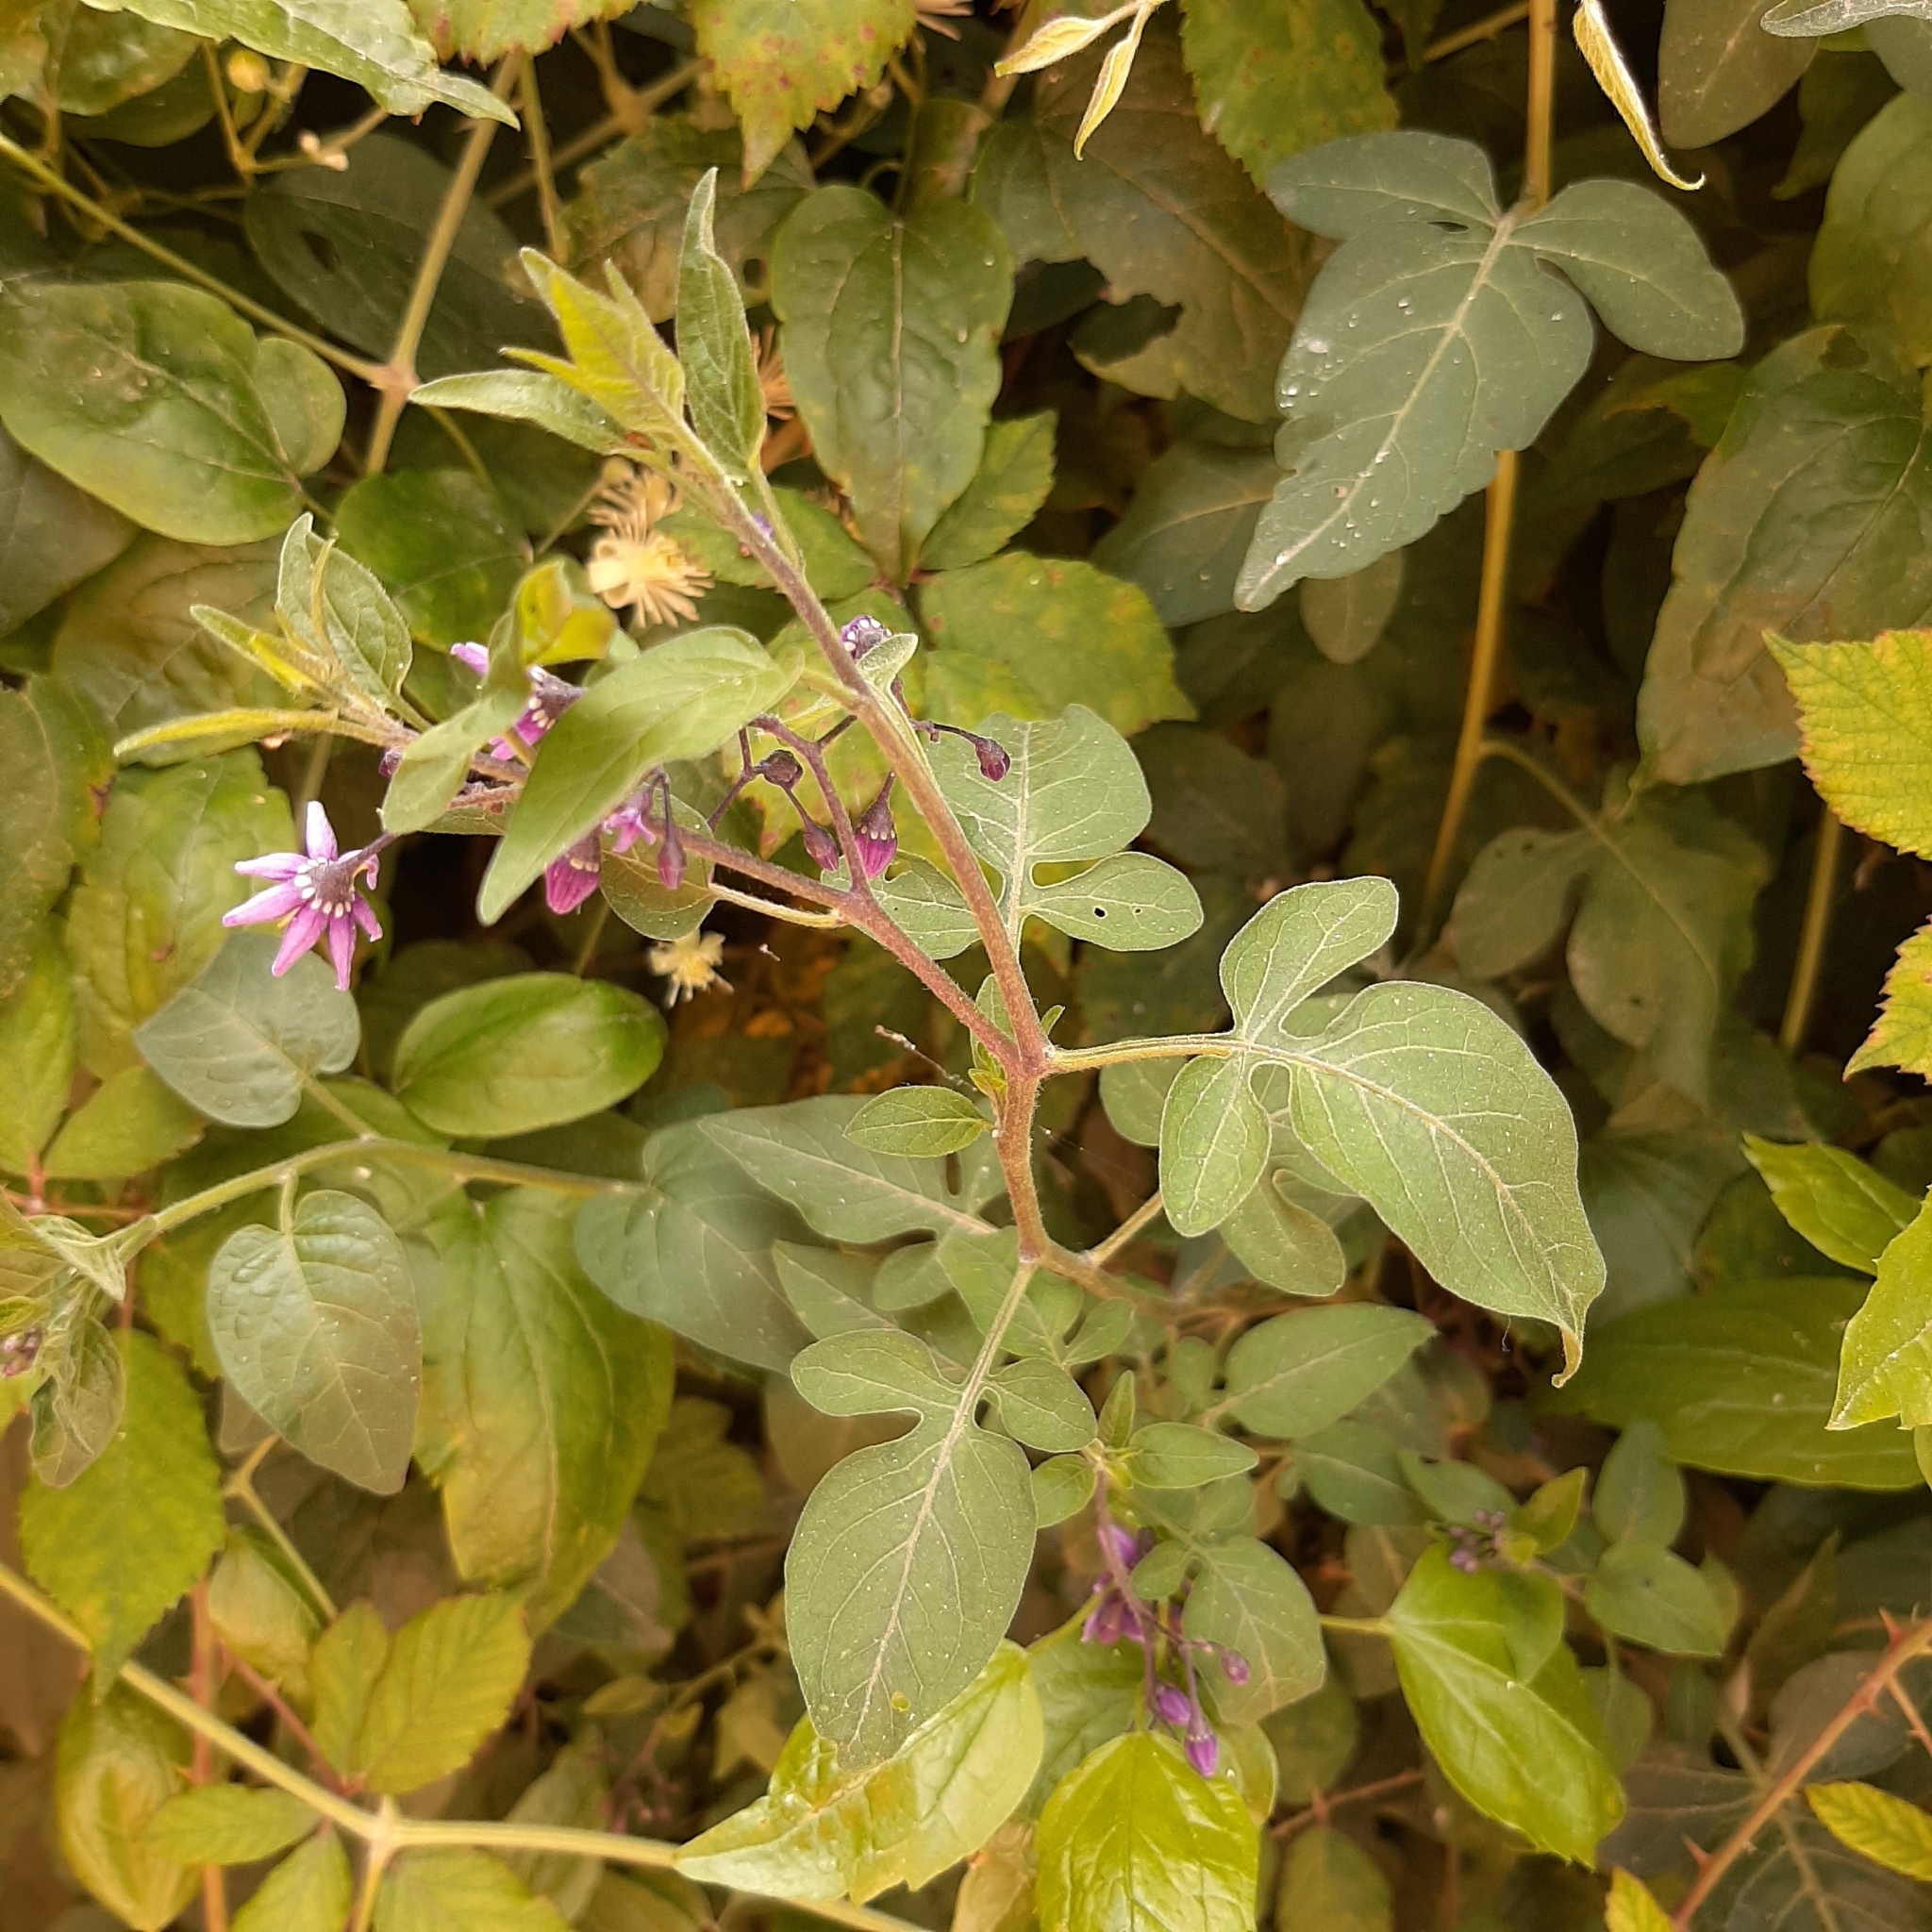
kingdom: Plantae
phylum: Tracheophyta
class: Magnoliopsida
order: Solanales
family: Solanaceae
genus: Solanum
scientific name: Solanum dulcamara
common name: Climbing nightshade
